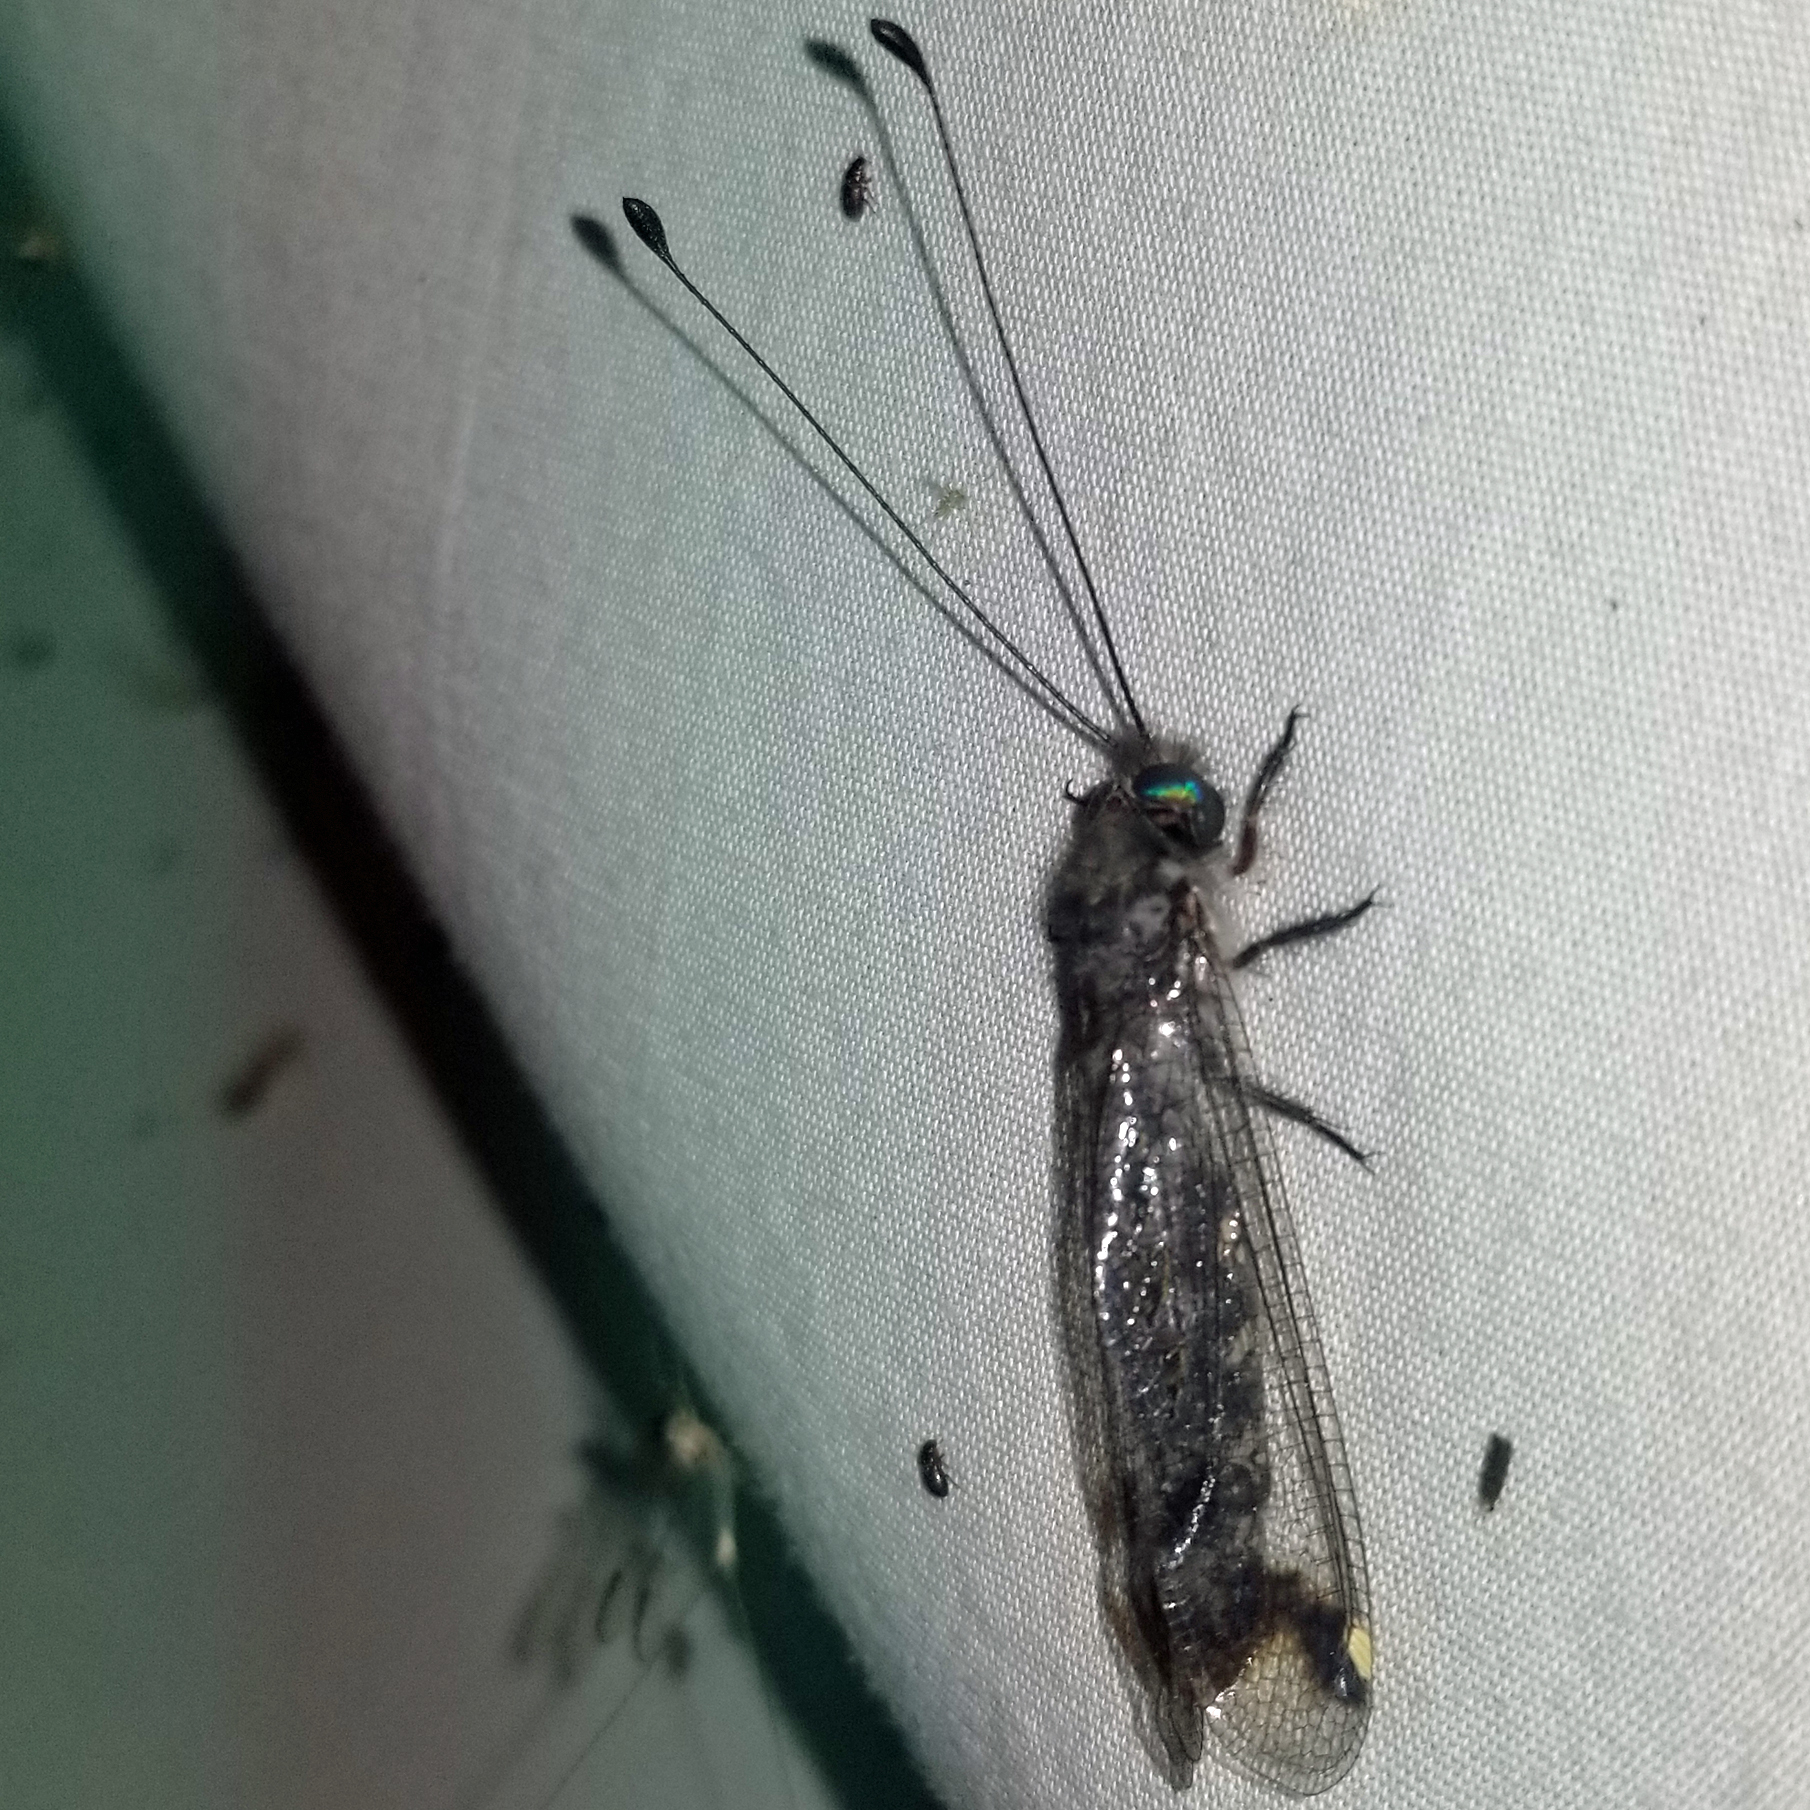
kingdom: Animalia
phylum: Arthropoda
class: Insecta
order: Neuroptera
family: Ascalaphidae
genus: Ululodes
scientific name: Ululodes quadripunctatus
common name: Four-spotted owlfly
